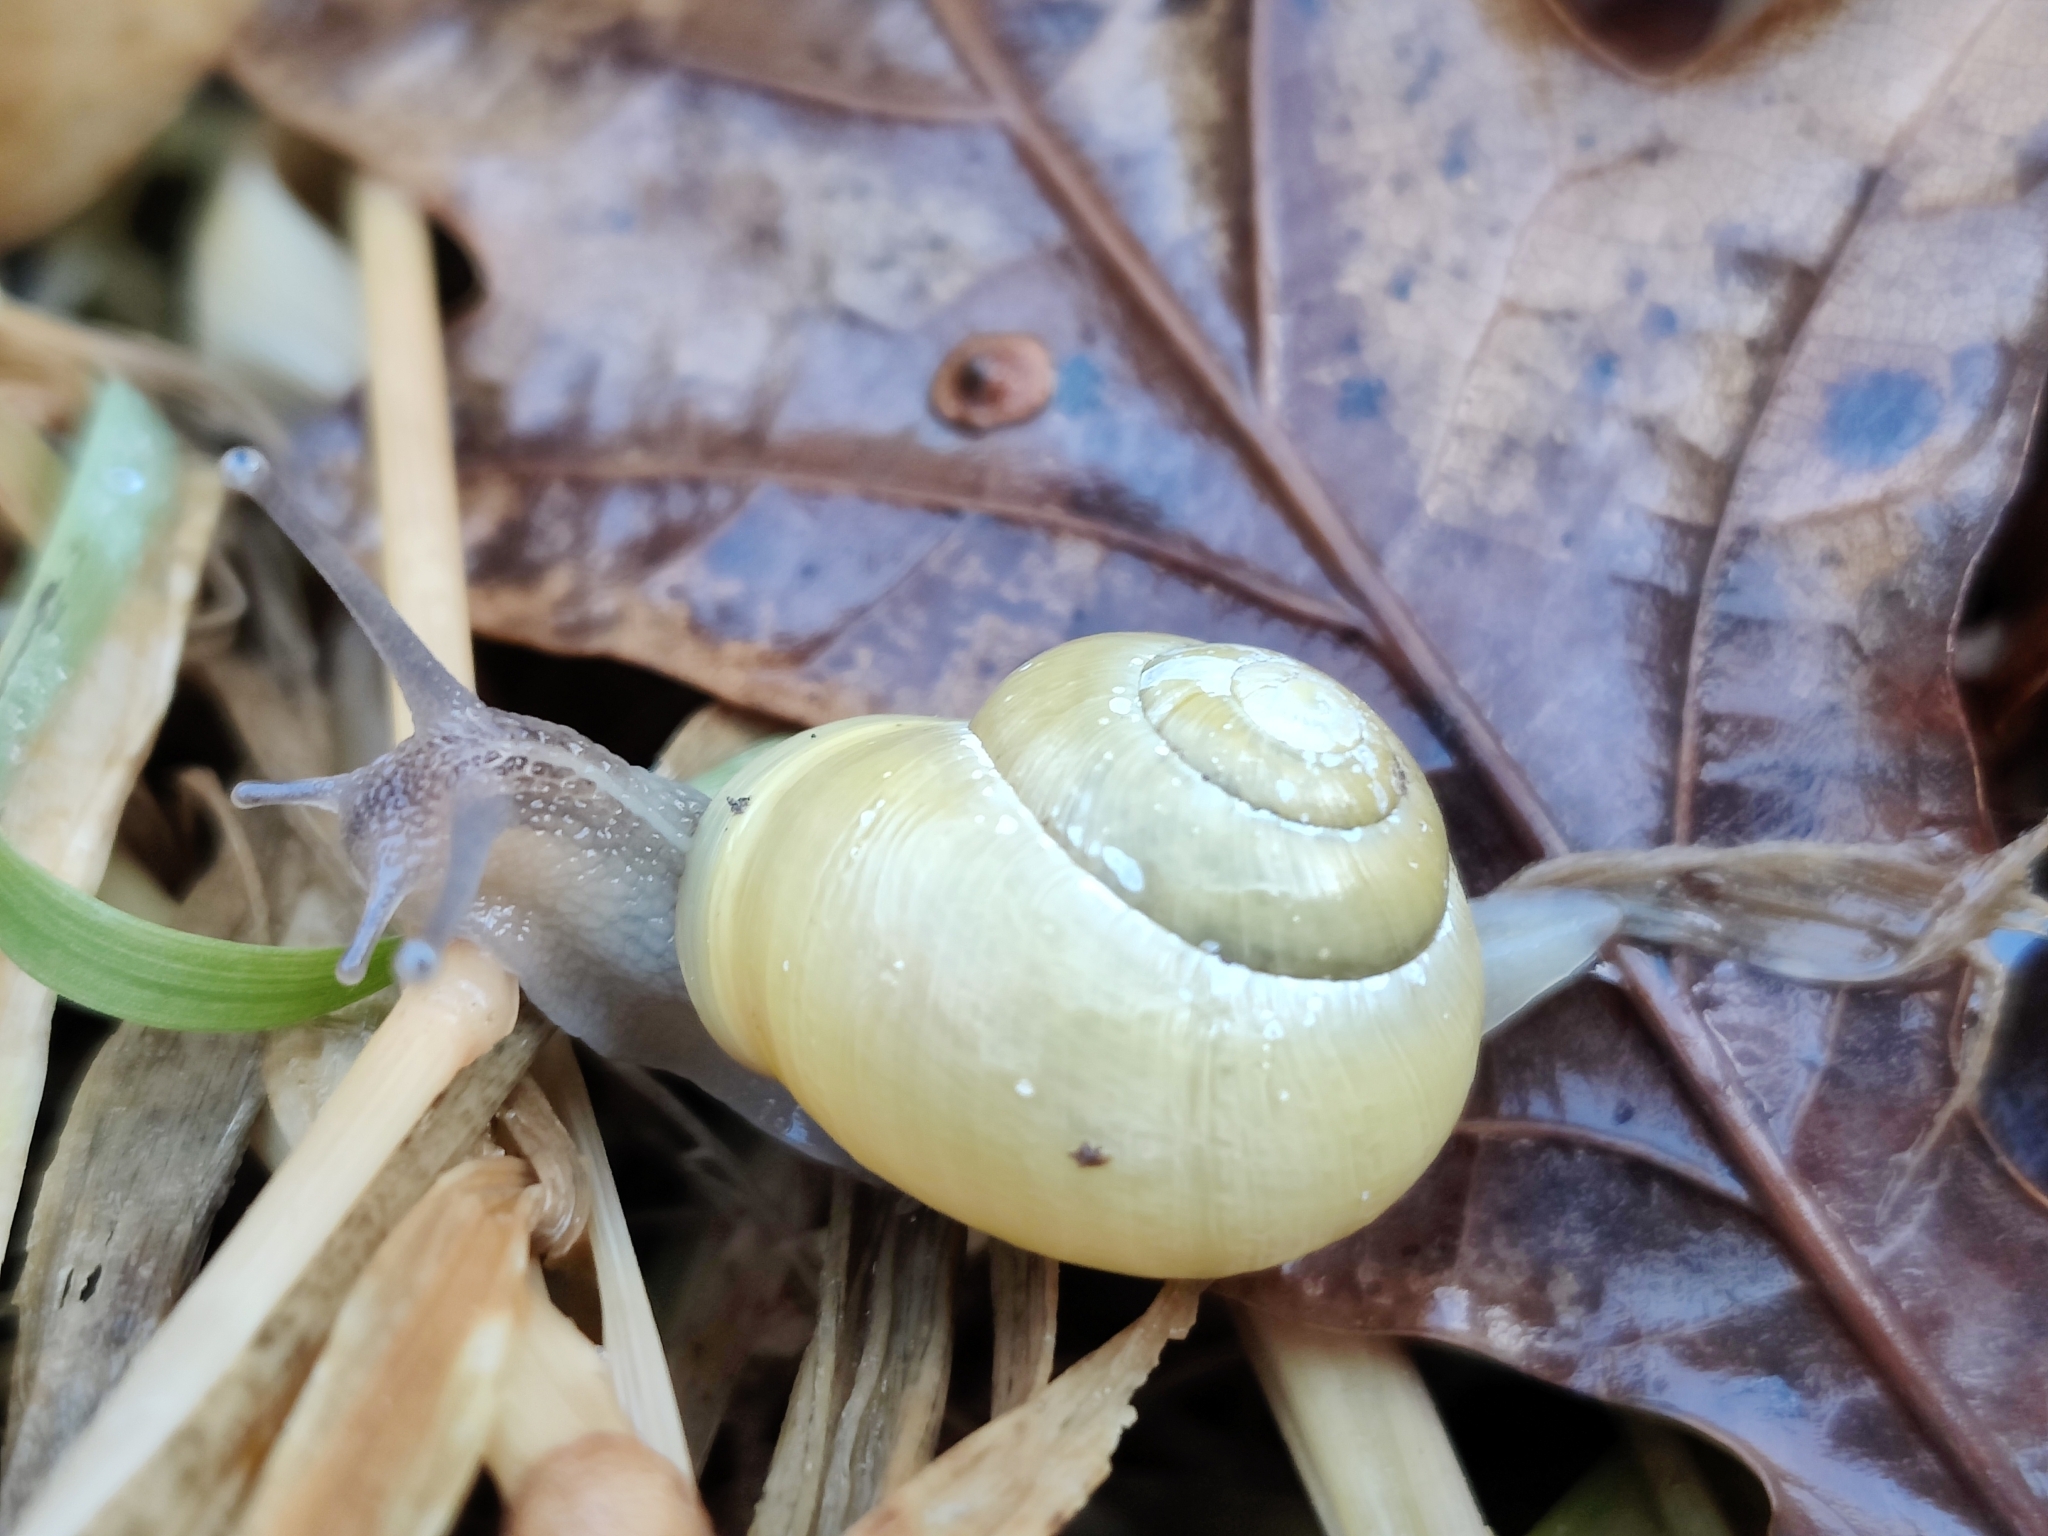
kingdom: Animalia
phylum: Mollusca
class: Gastropoda
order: Stylommatophora
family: Helicidae
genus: Cepaea
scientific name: Cepaea hortensis
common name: White-lip gardensnail
